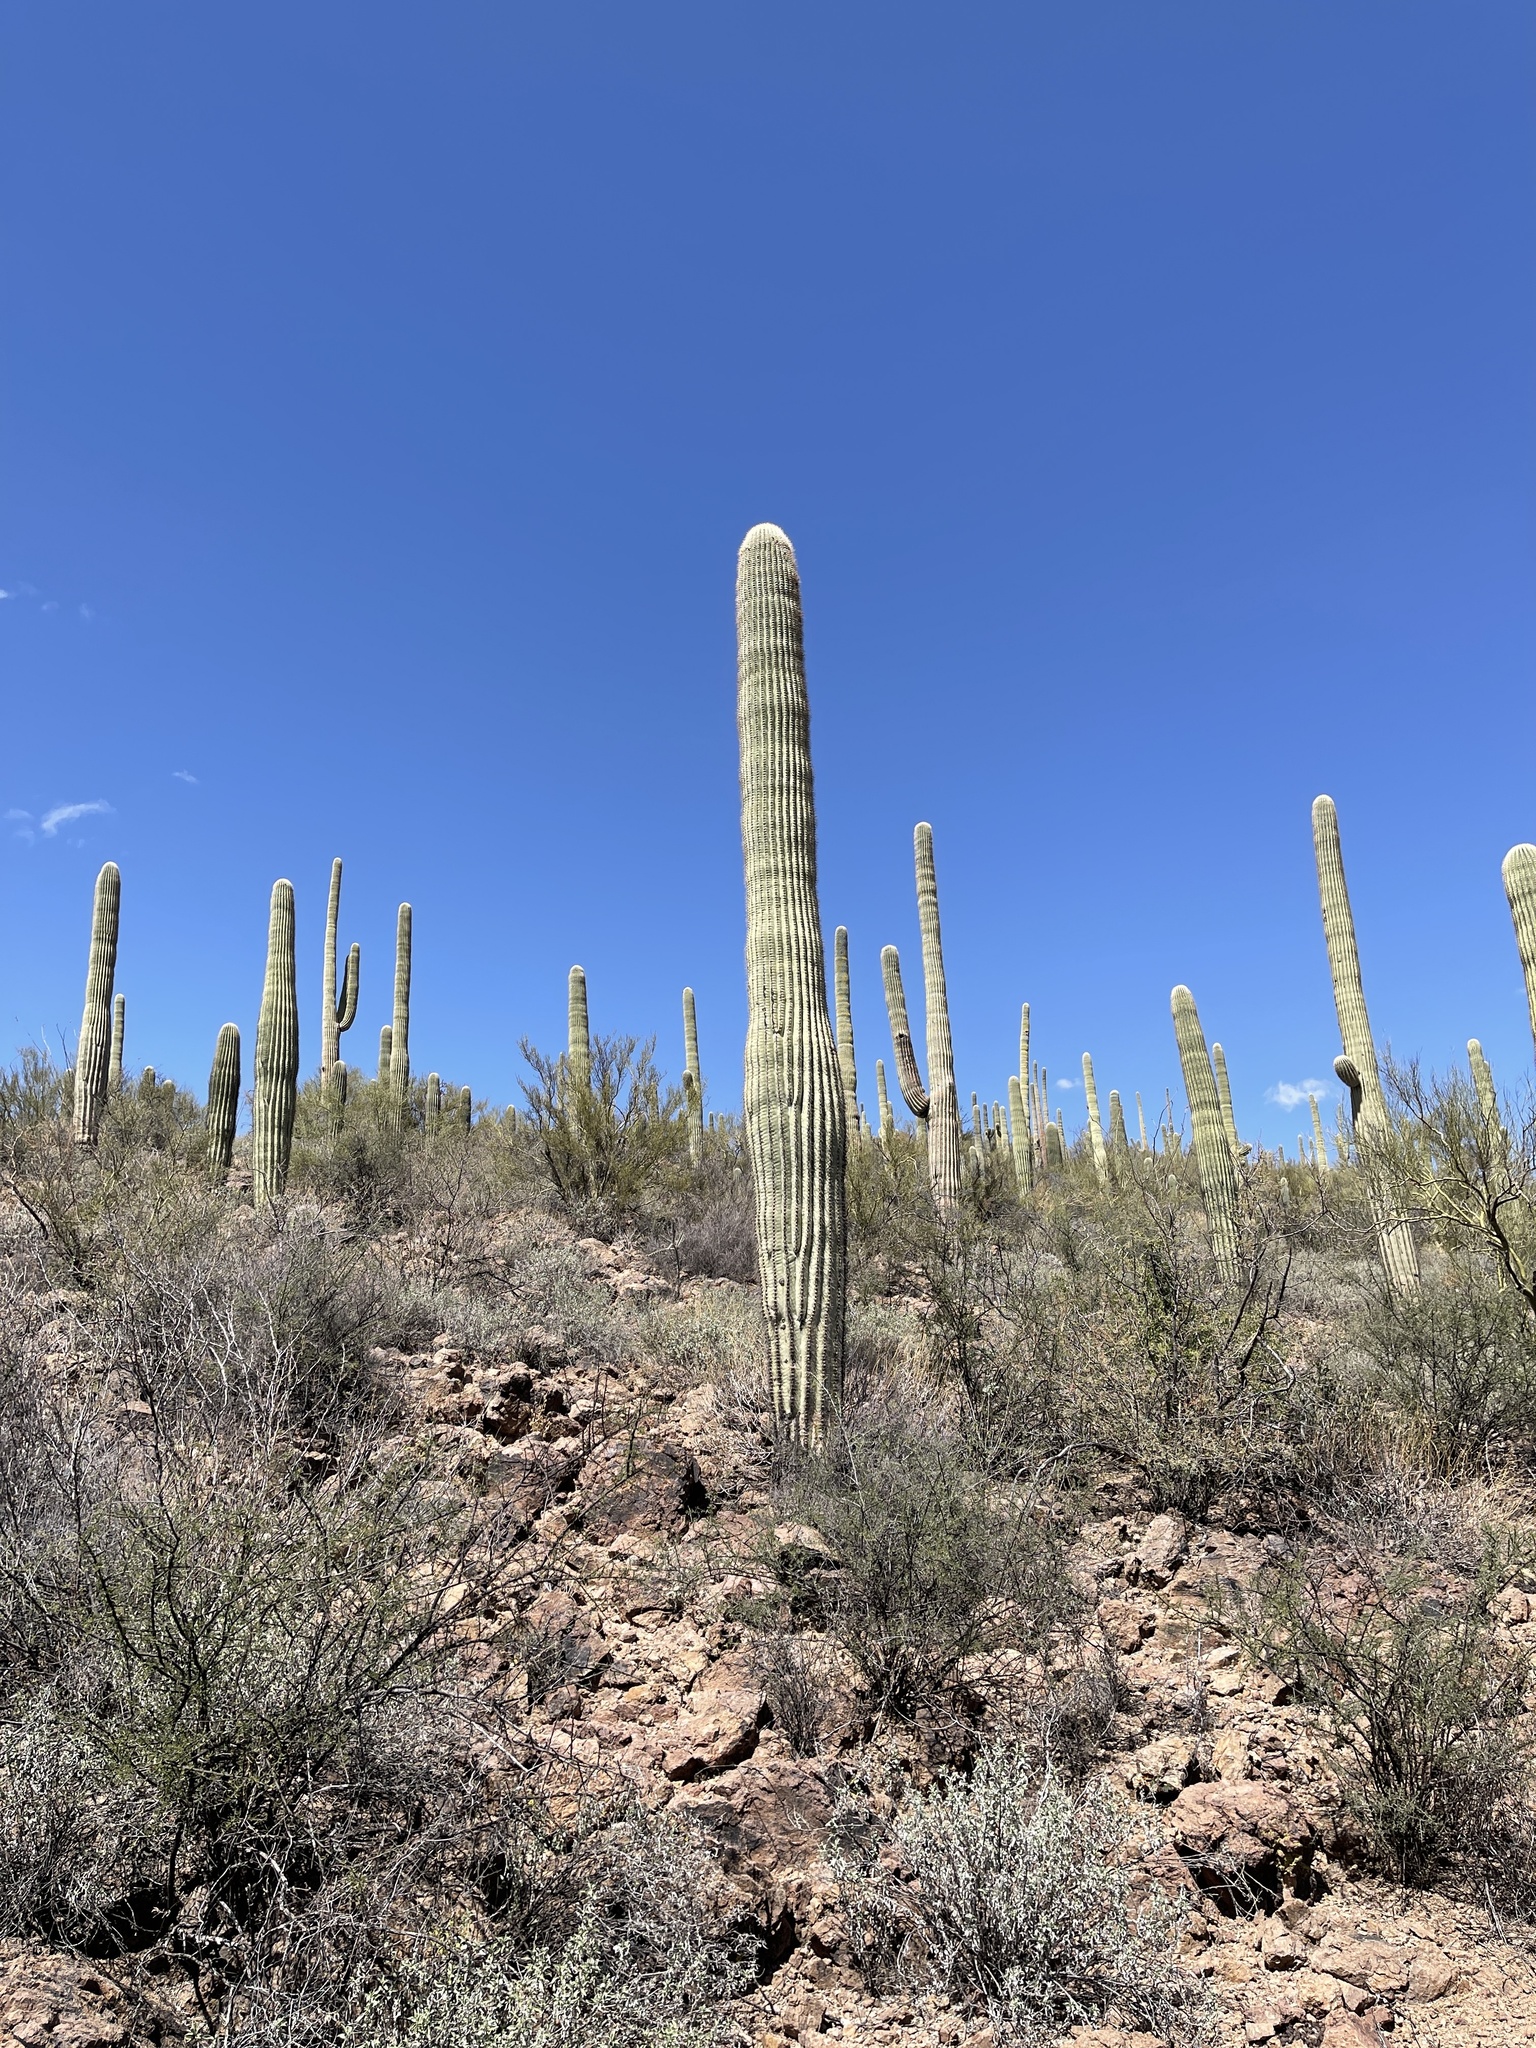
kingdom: Plantae
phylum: Tracheophyta
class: Magnoliopsida
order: Caryophyllales
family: Cactaceae
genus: Carnegiea
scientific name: Carnegiea gigantea
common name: Saguaro
